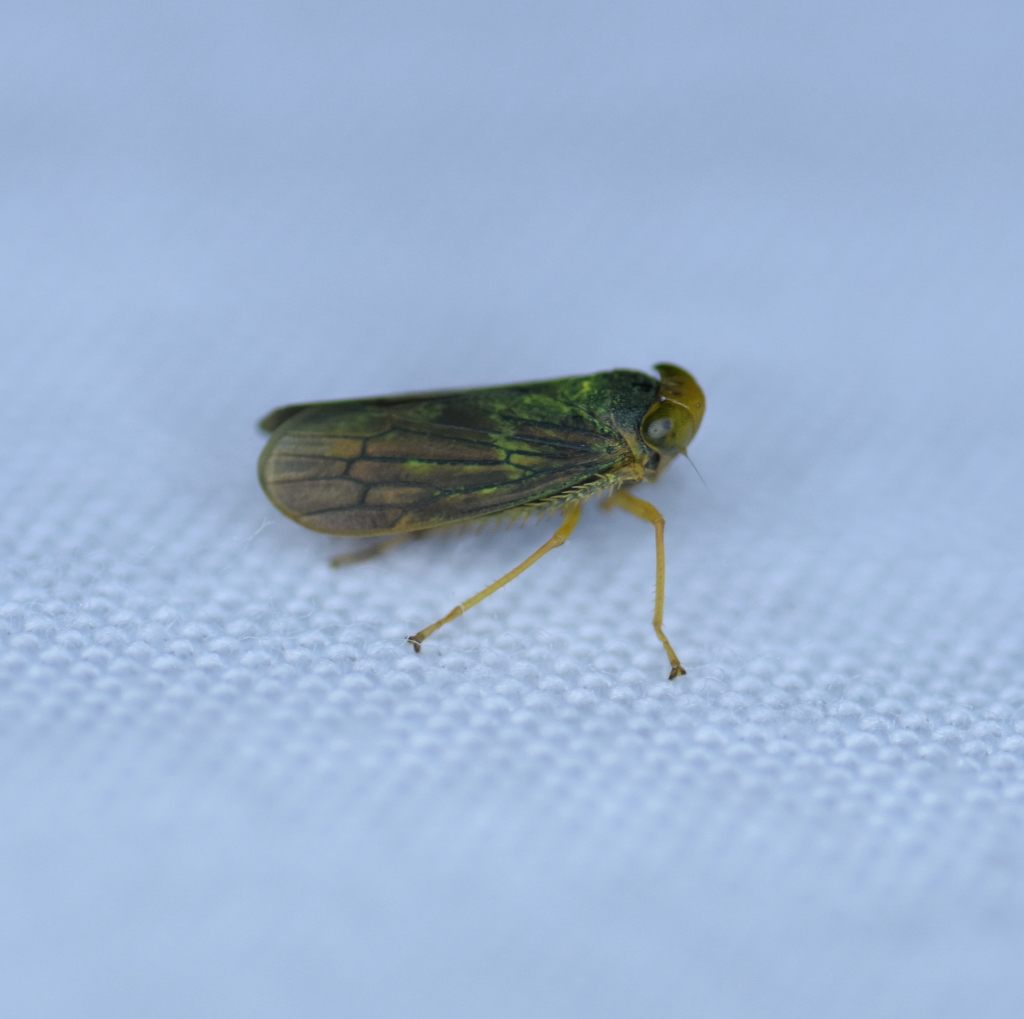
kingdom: Animalia
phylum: Arthropoda
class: Insecta
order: Hemiptera
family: Cicadellidae
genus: Jikradia
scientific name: Jikradia olitoria
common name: Coppery leafhopper
